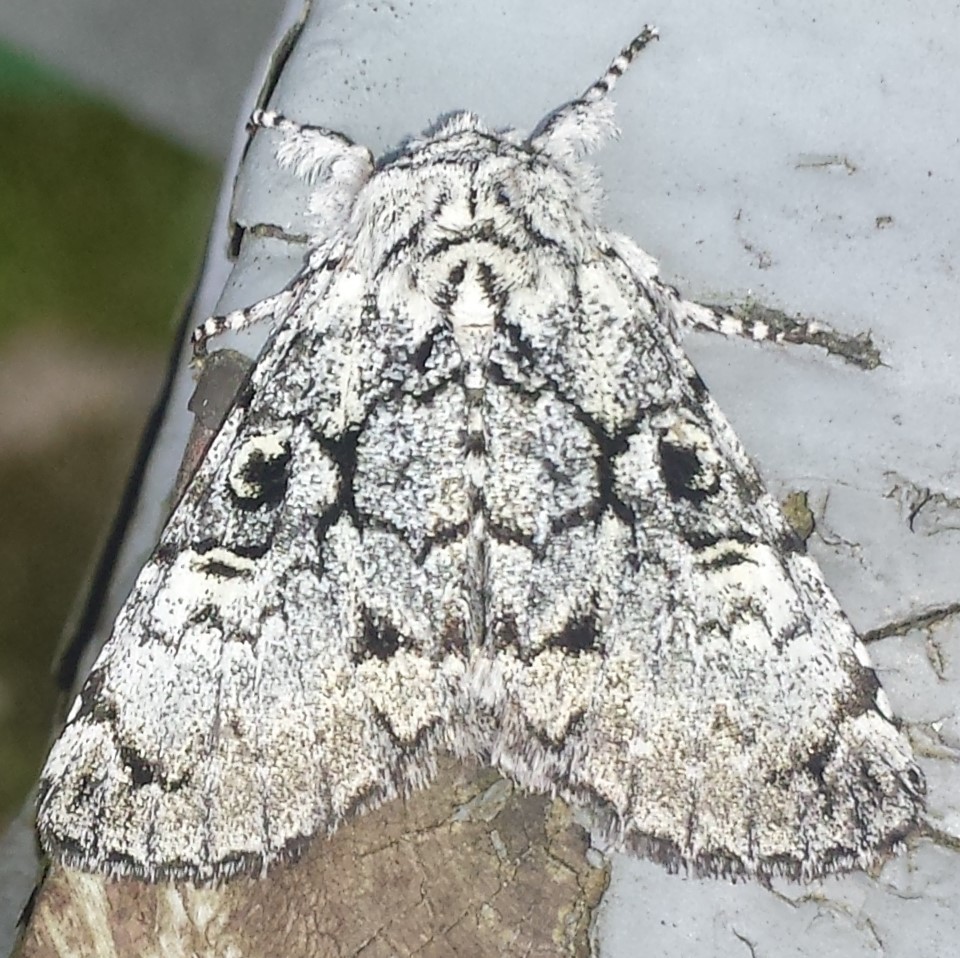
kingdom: Animalia
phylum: Arthropoda
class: Insecta
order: Lepidoptera
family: Noctuidae
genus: Charadra
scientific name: Charadra deridens
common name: Marbled tuffet
